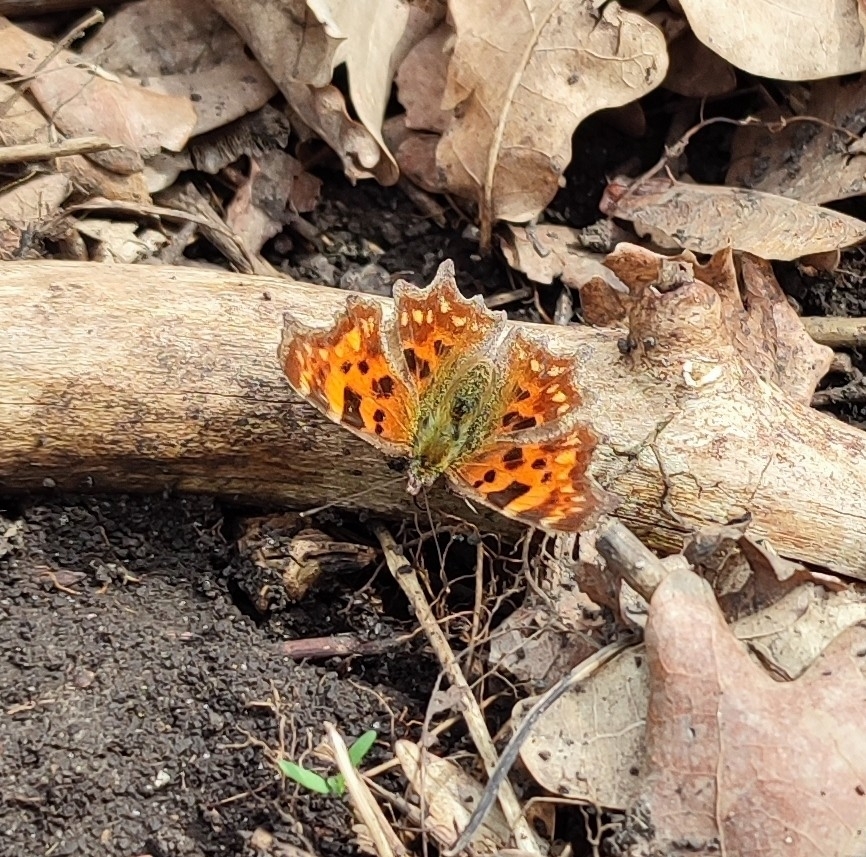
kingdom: Animalia
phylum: Arthropoda
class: Insecta
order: Lepidoptera
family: Nymphalidae
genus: Polygonia
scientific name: Polygonia c-album
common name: Comma
